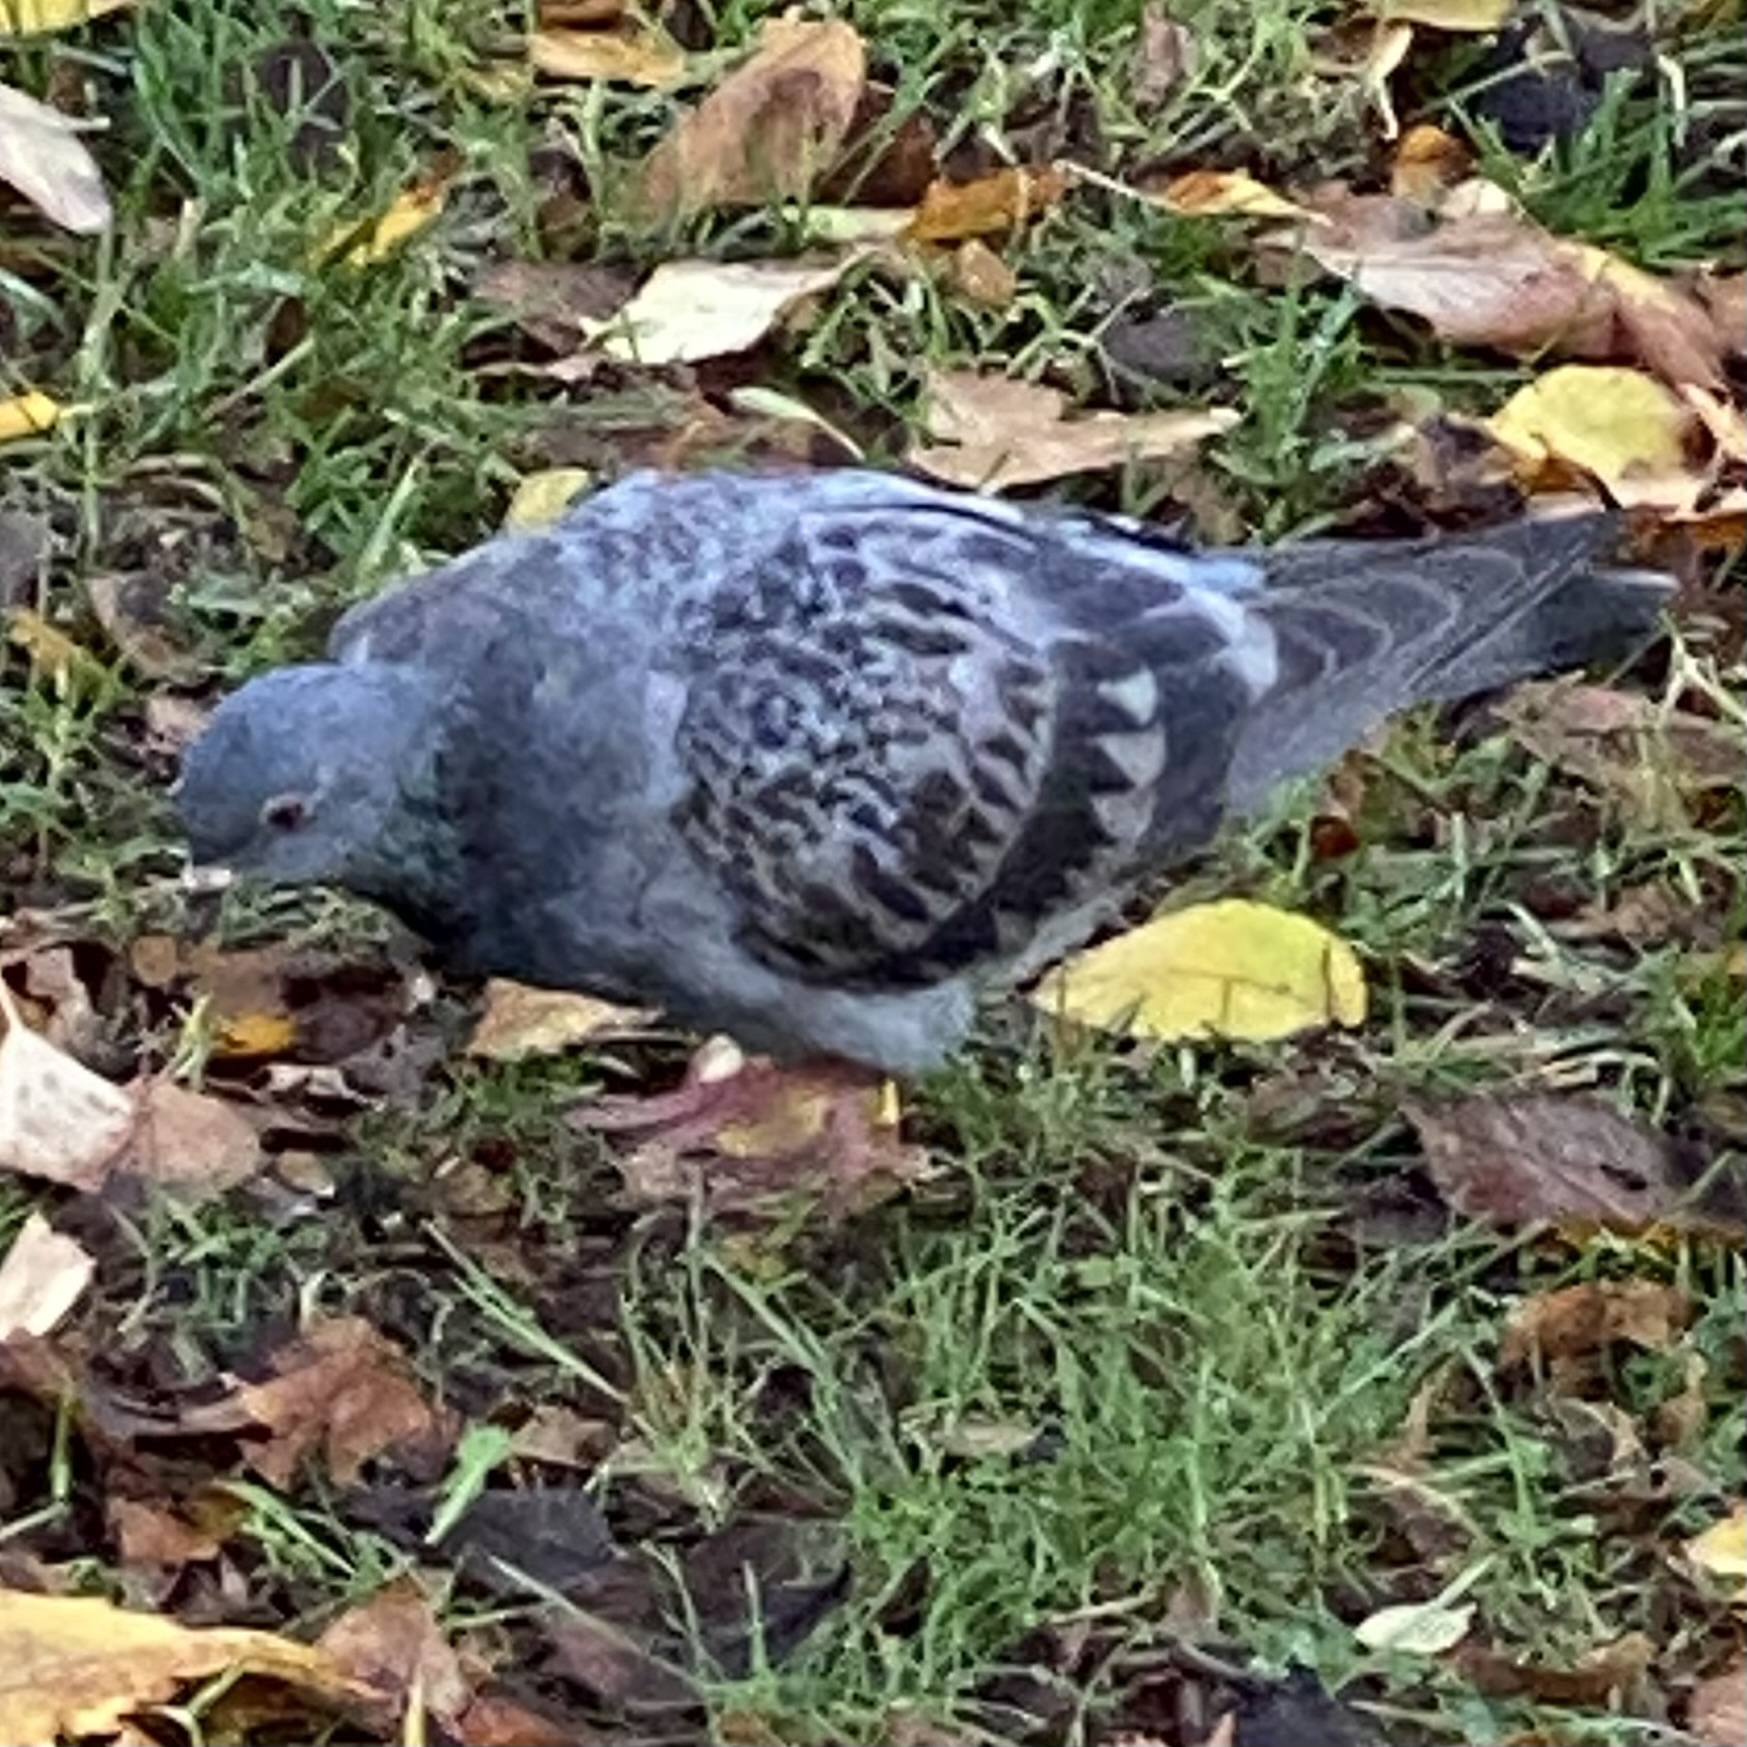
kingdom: Animalia
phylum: Chordata
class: Aves
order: Columbiformes
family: Columbidae
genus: Columba
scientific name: Columba livia
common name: Rock pigeon
